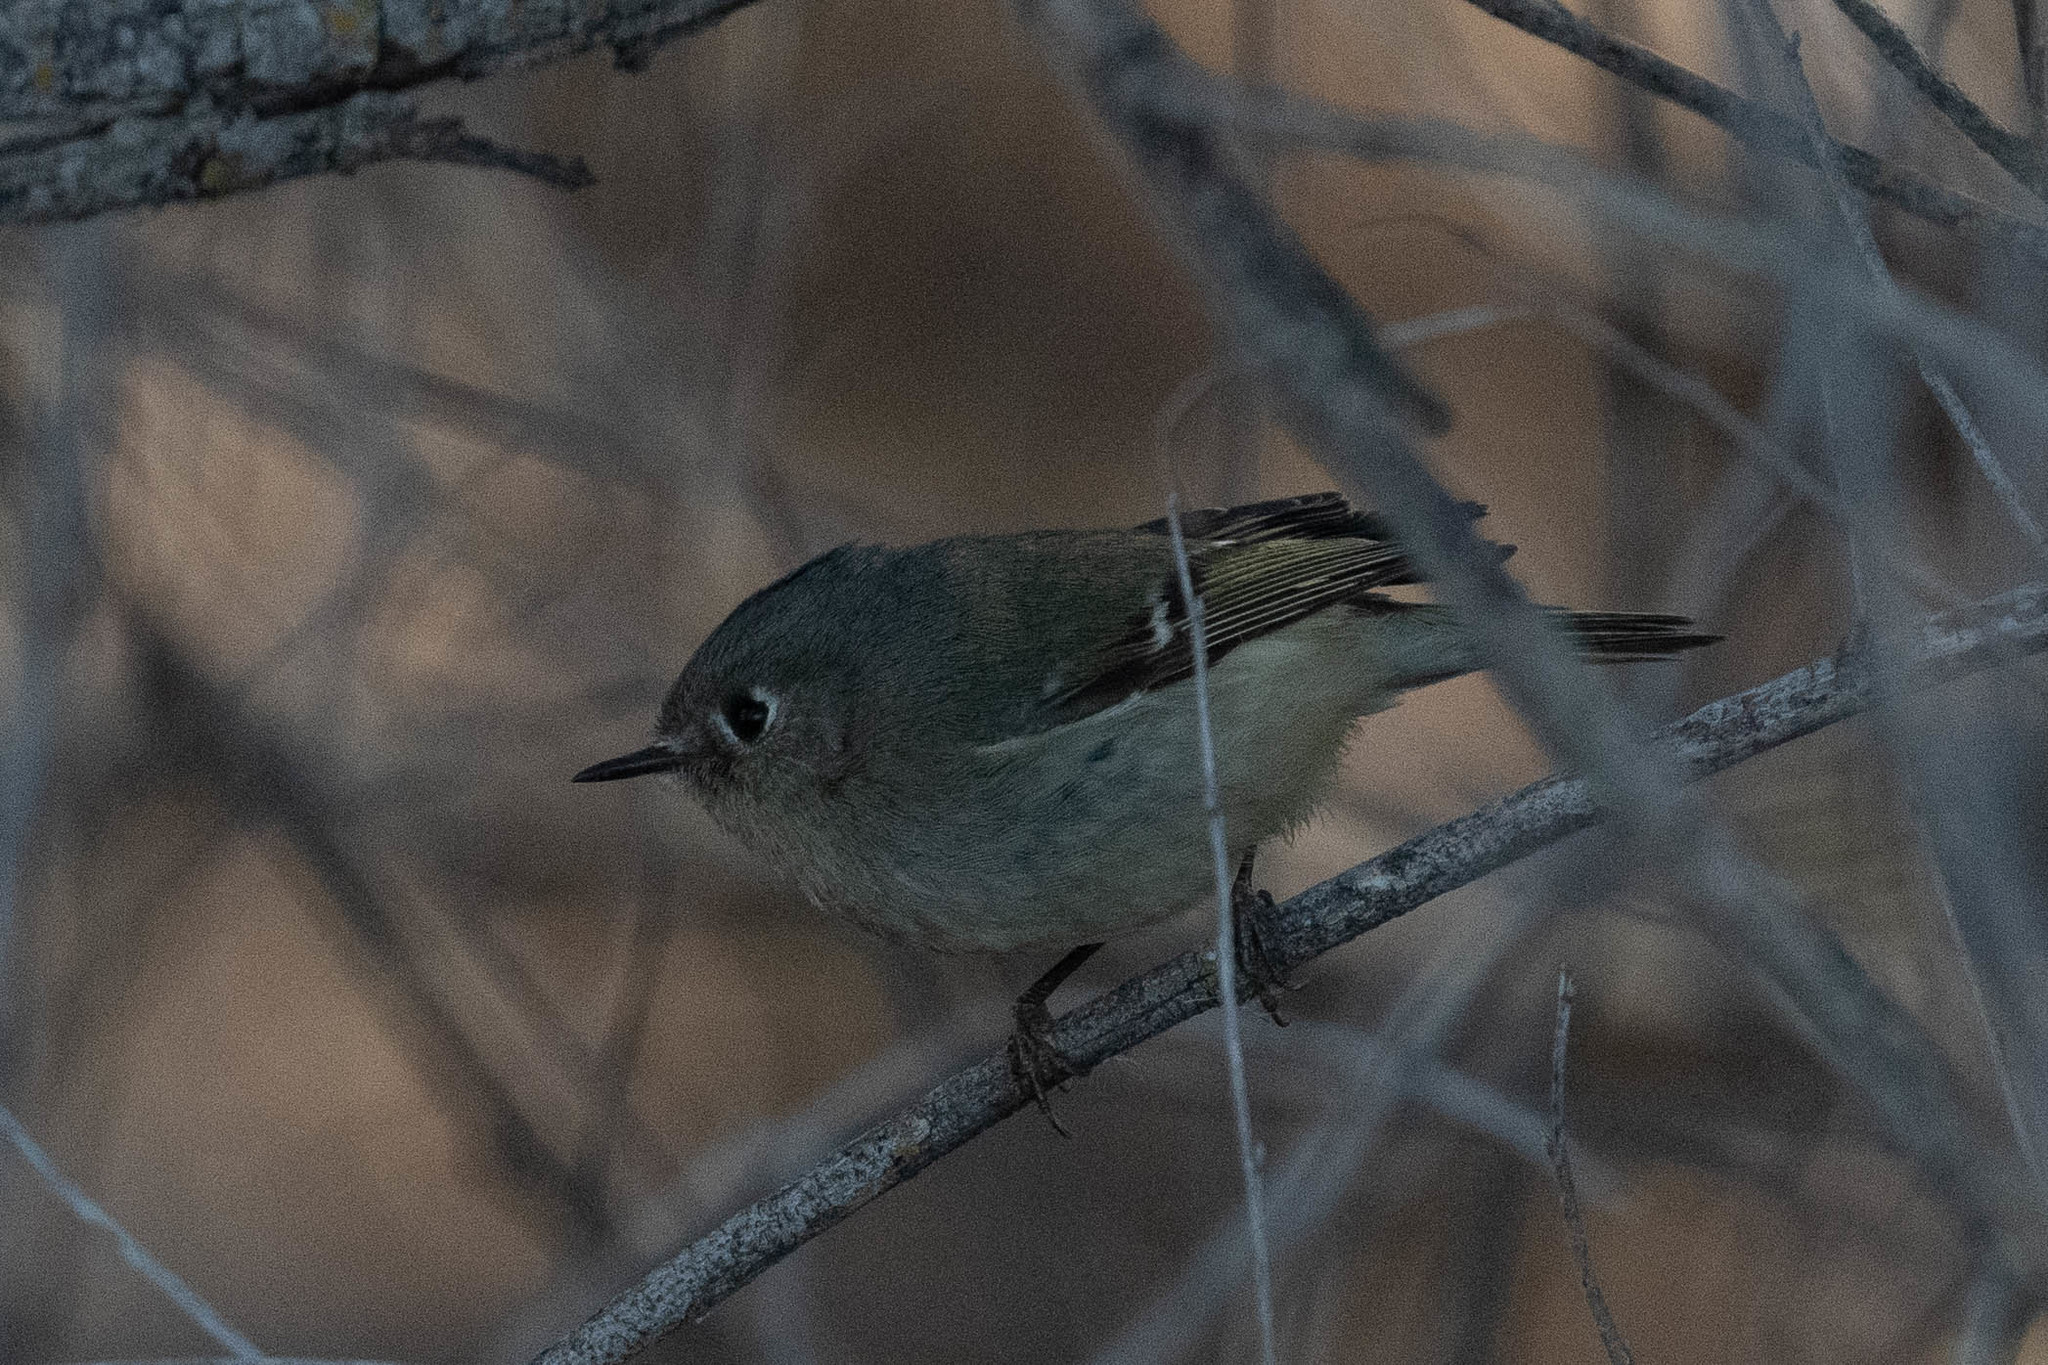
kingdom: Animalia
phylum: Chordata
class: Aves
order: Passeriformes
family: Regulidae
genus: Regulus
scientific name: Regulus calendula
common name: Ruby-crowned kinglet
